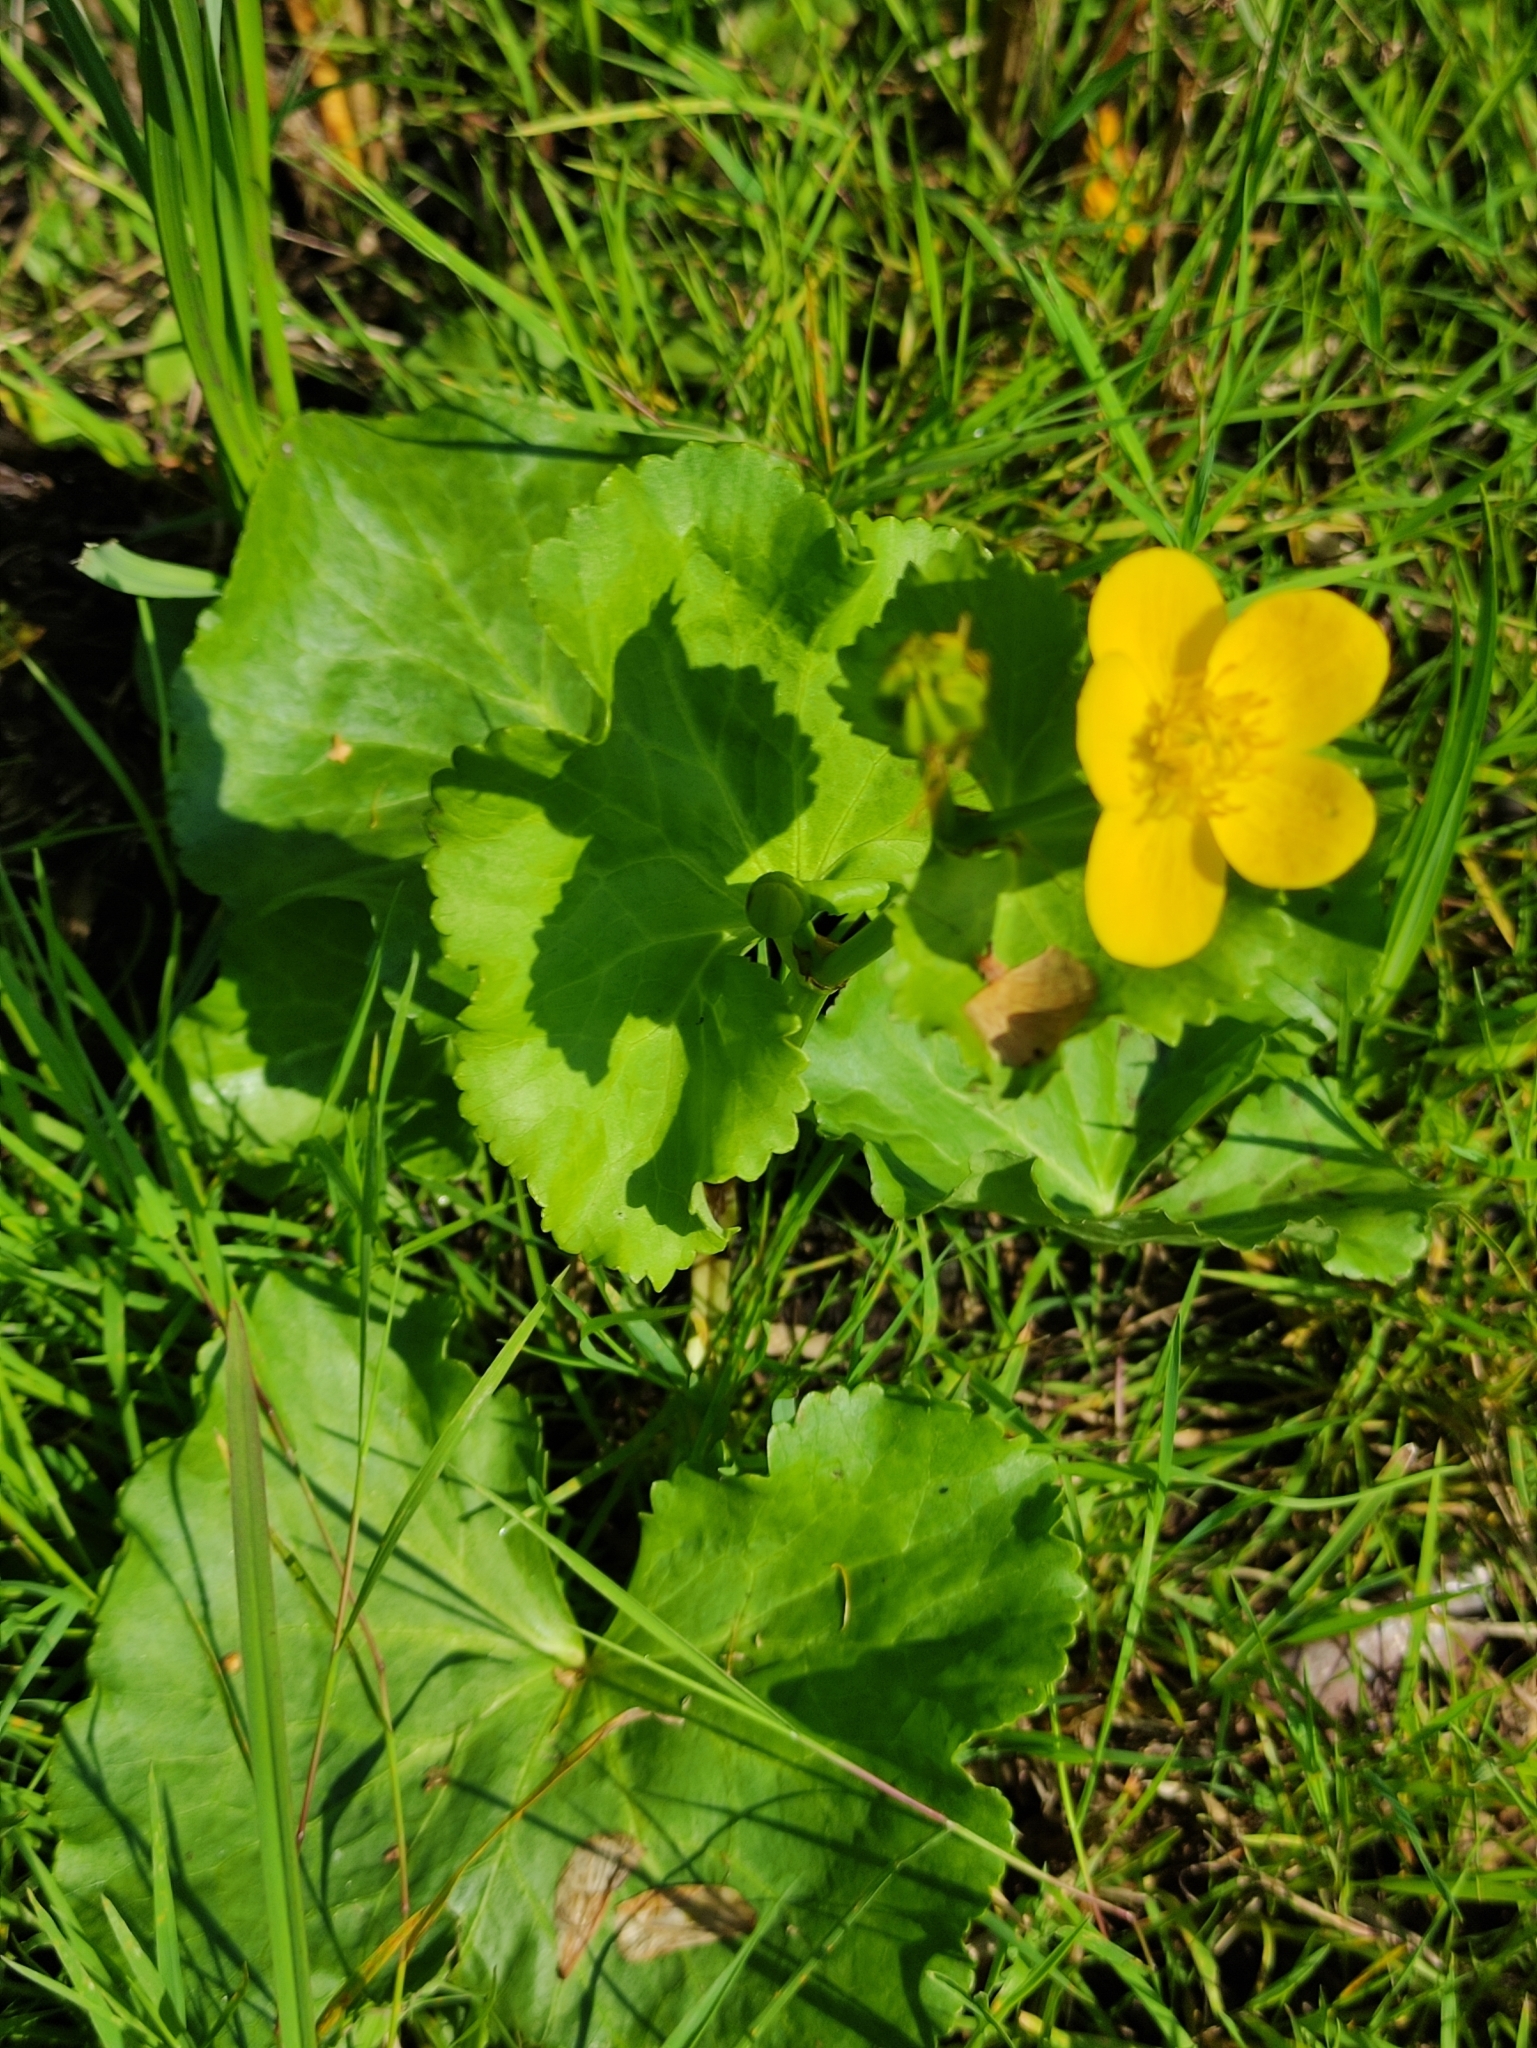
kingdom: Plantae
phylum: Tracheophyta
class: Magnoliopsida
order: Ranunculales
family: Ranunculaceae
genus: Caltha
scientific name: Caltha palustris
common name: Marsh marigold
